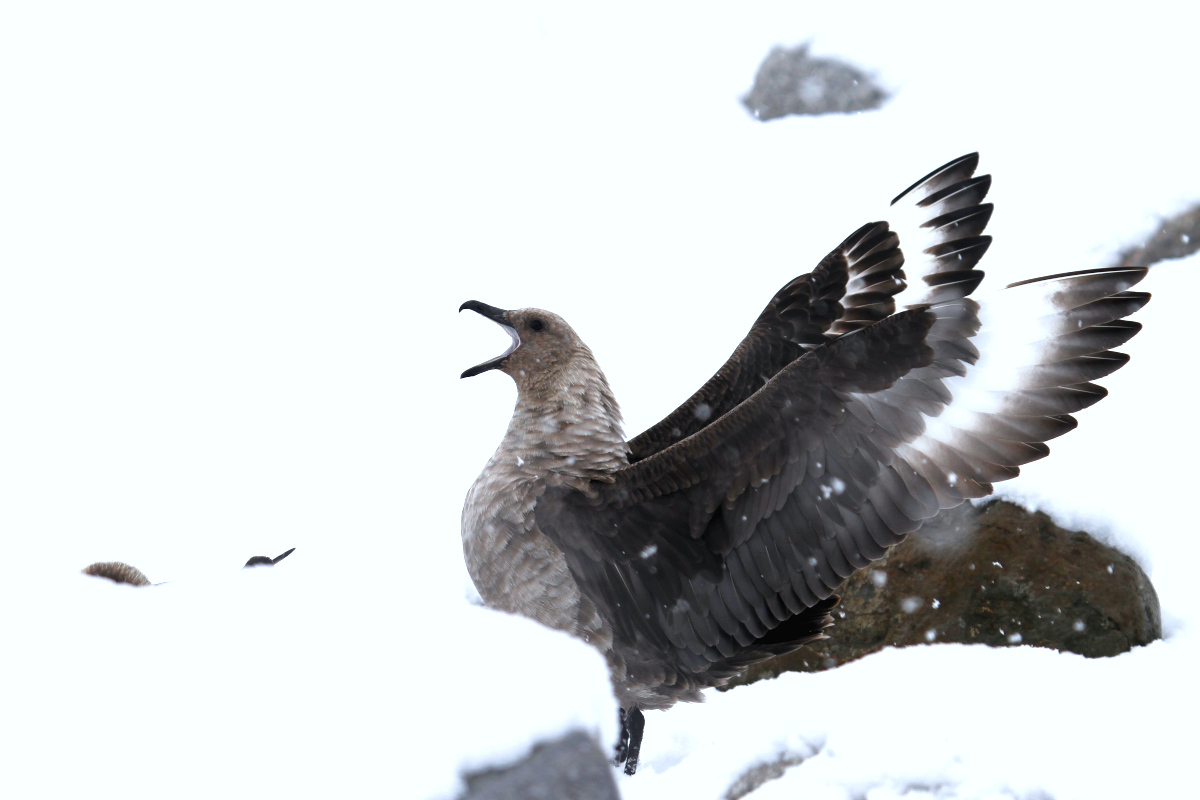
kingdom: Animalia
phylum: Chordata
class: Aves
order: Charadriiformes
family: Stercorariidae
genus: Stercorarius
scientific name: Stercorarius maccormicki
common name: South polar skua
